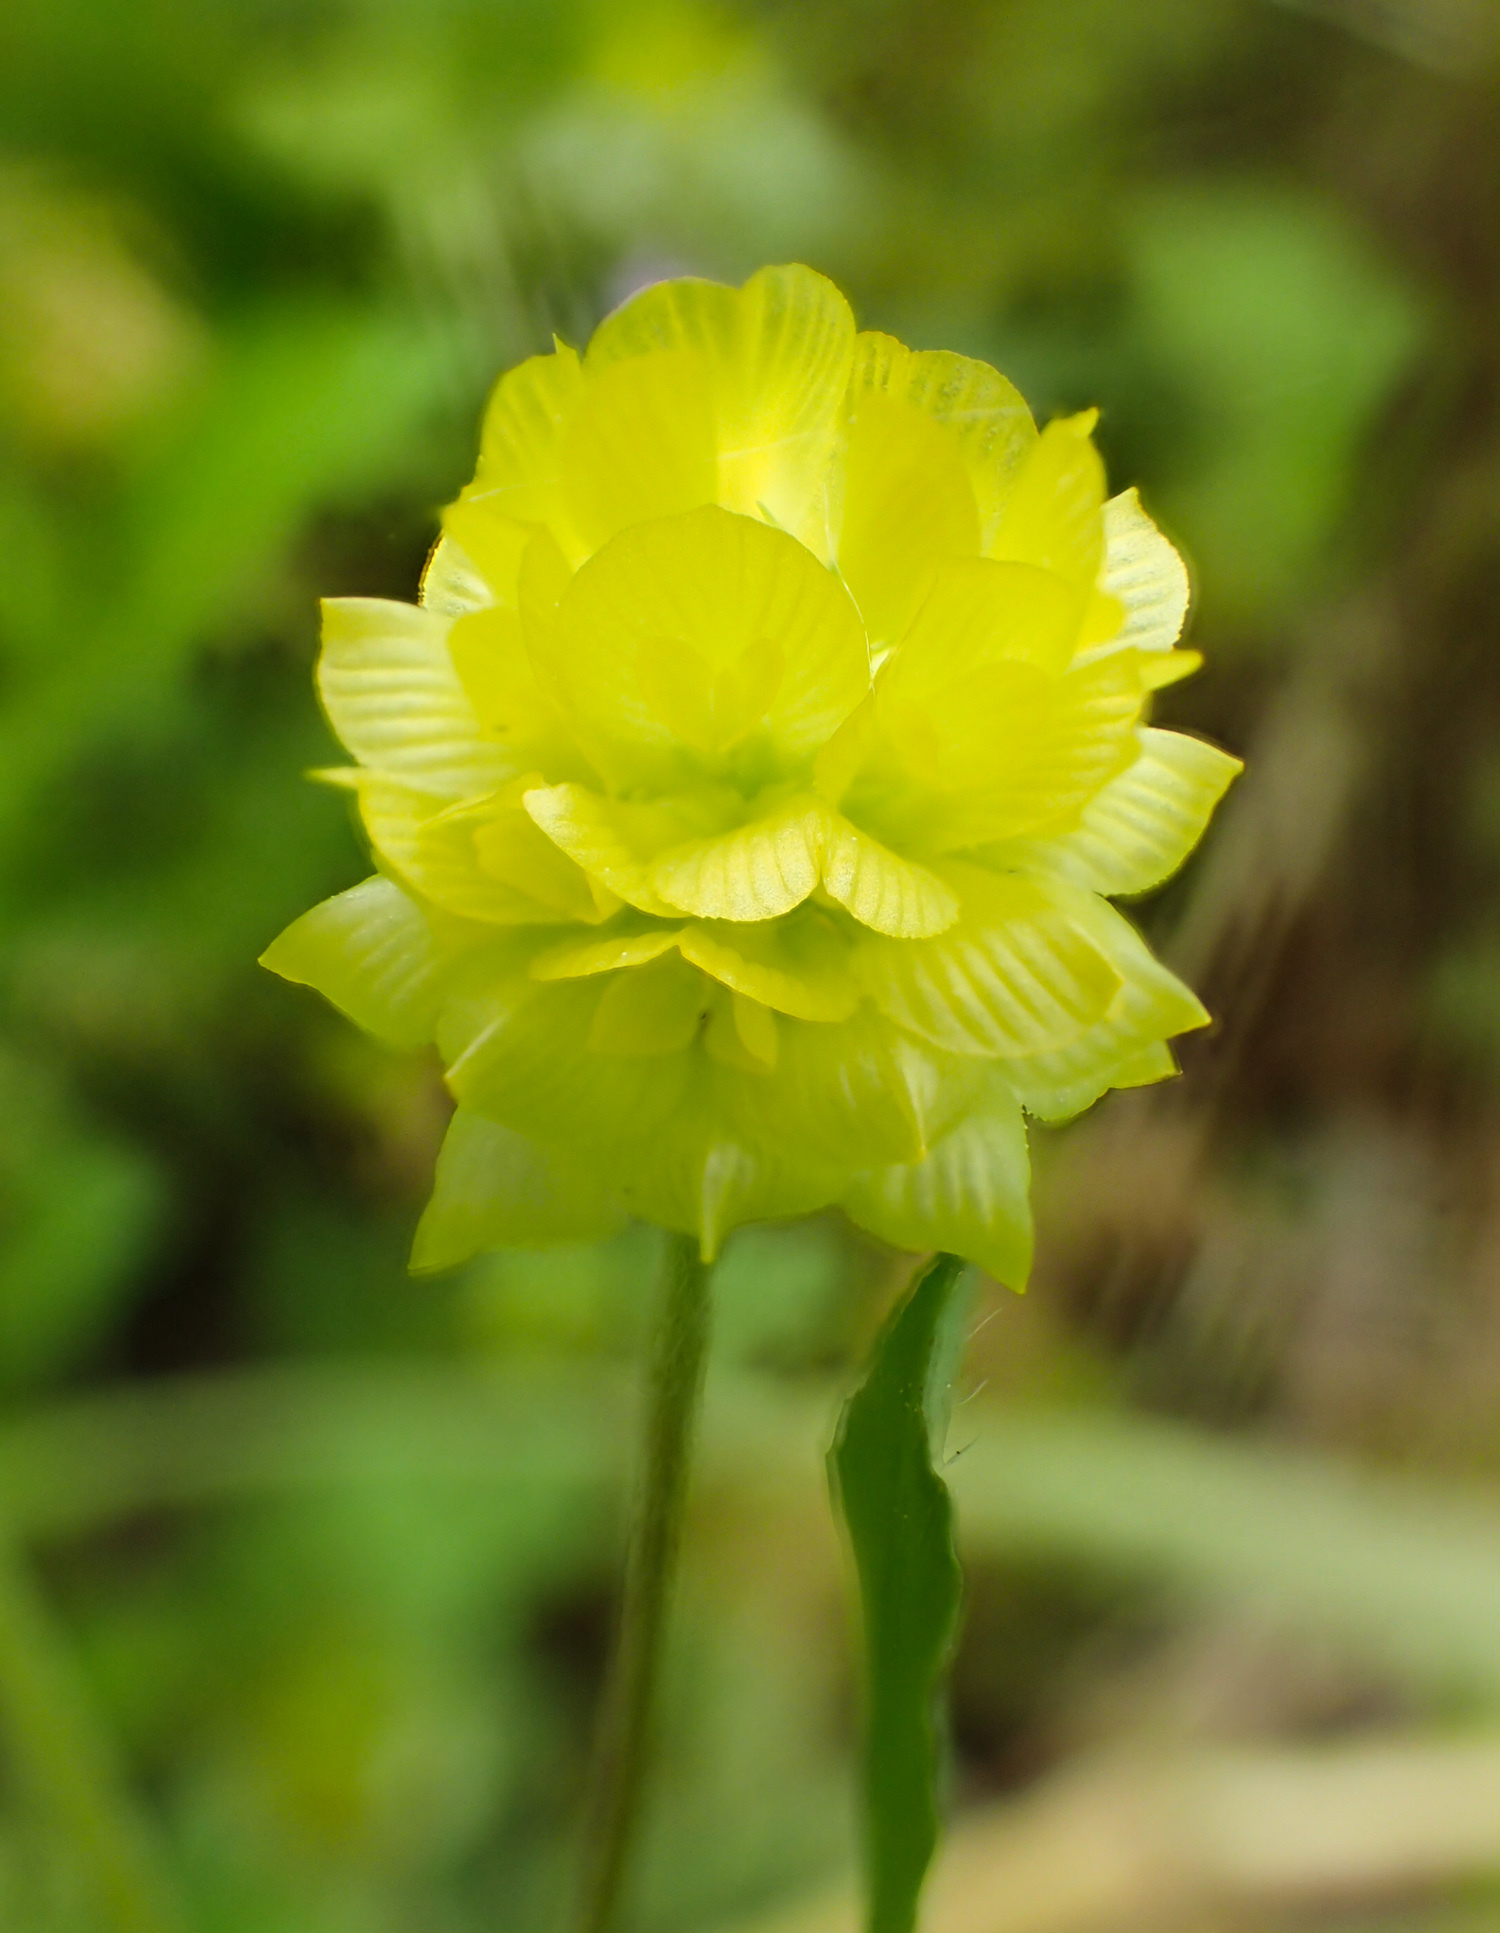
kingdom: Plantae
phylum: Tracheophyta
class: Magnoliopsida
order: Fabales
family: Fabaceae
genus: Trifolium
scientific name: Trifolium campestre
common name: Field clover
